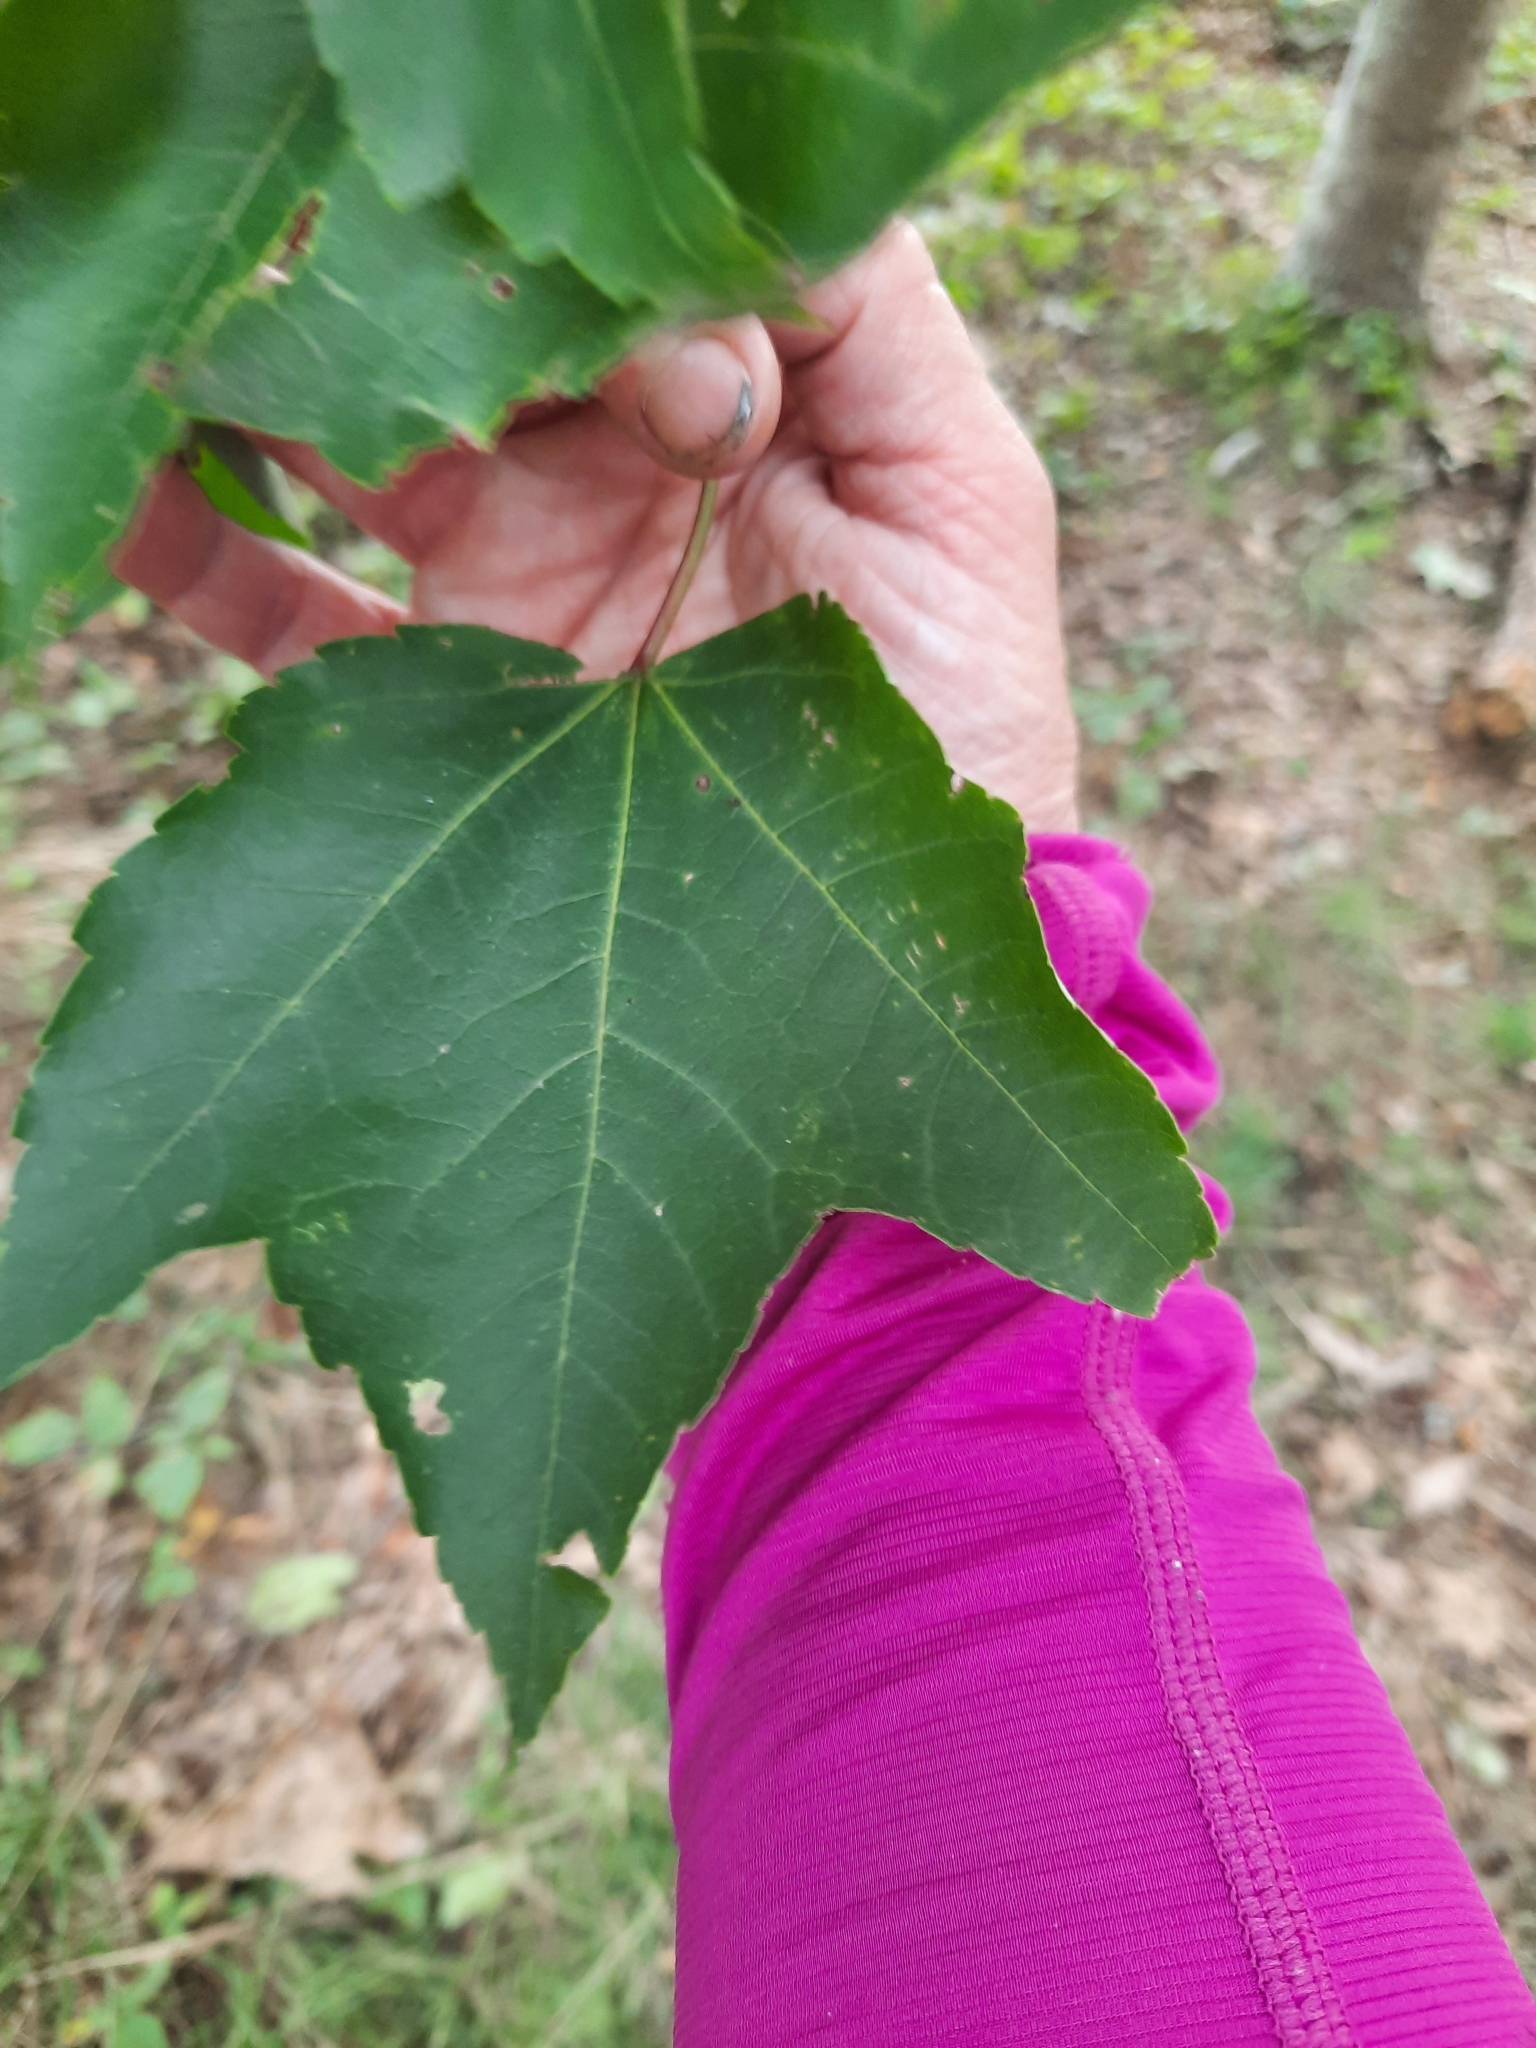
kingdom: Plantae
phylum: Tracheophyta
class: Magnoliopsida
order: Sapindales
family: Sapindaceae
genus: Acer
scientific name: Acer rubrum
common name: Red maple
